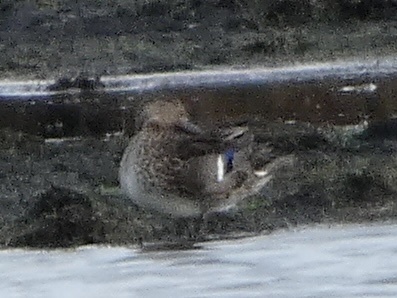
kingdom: Animalia
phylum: Chordata
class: Aves
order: Anseriformes
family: Anatidae
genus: Anas
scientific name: Anas crecca
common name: Eurasian teal
